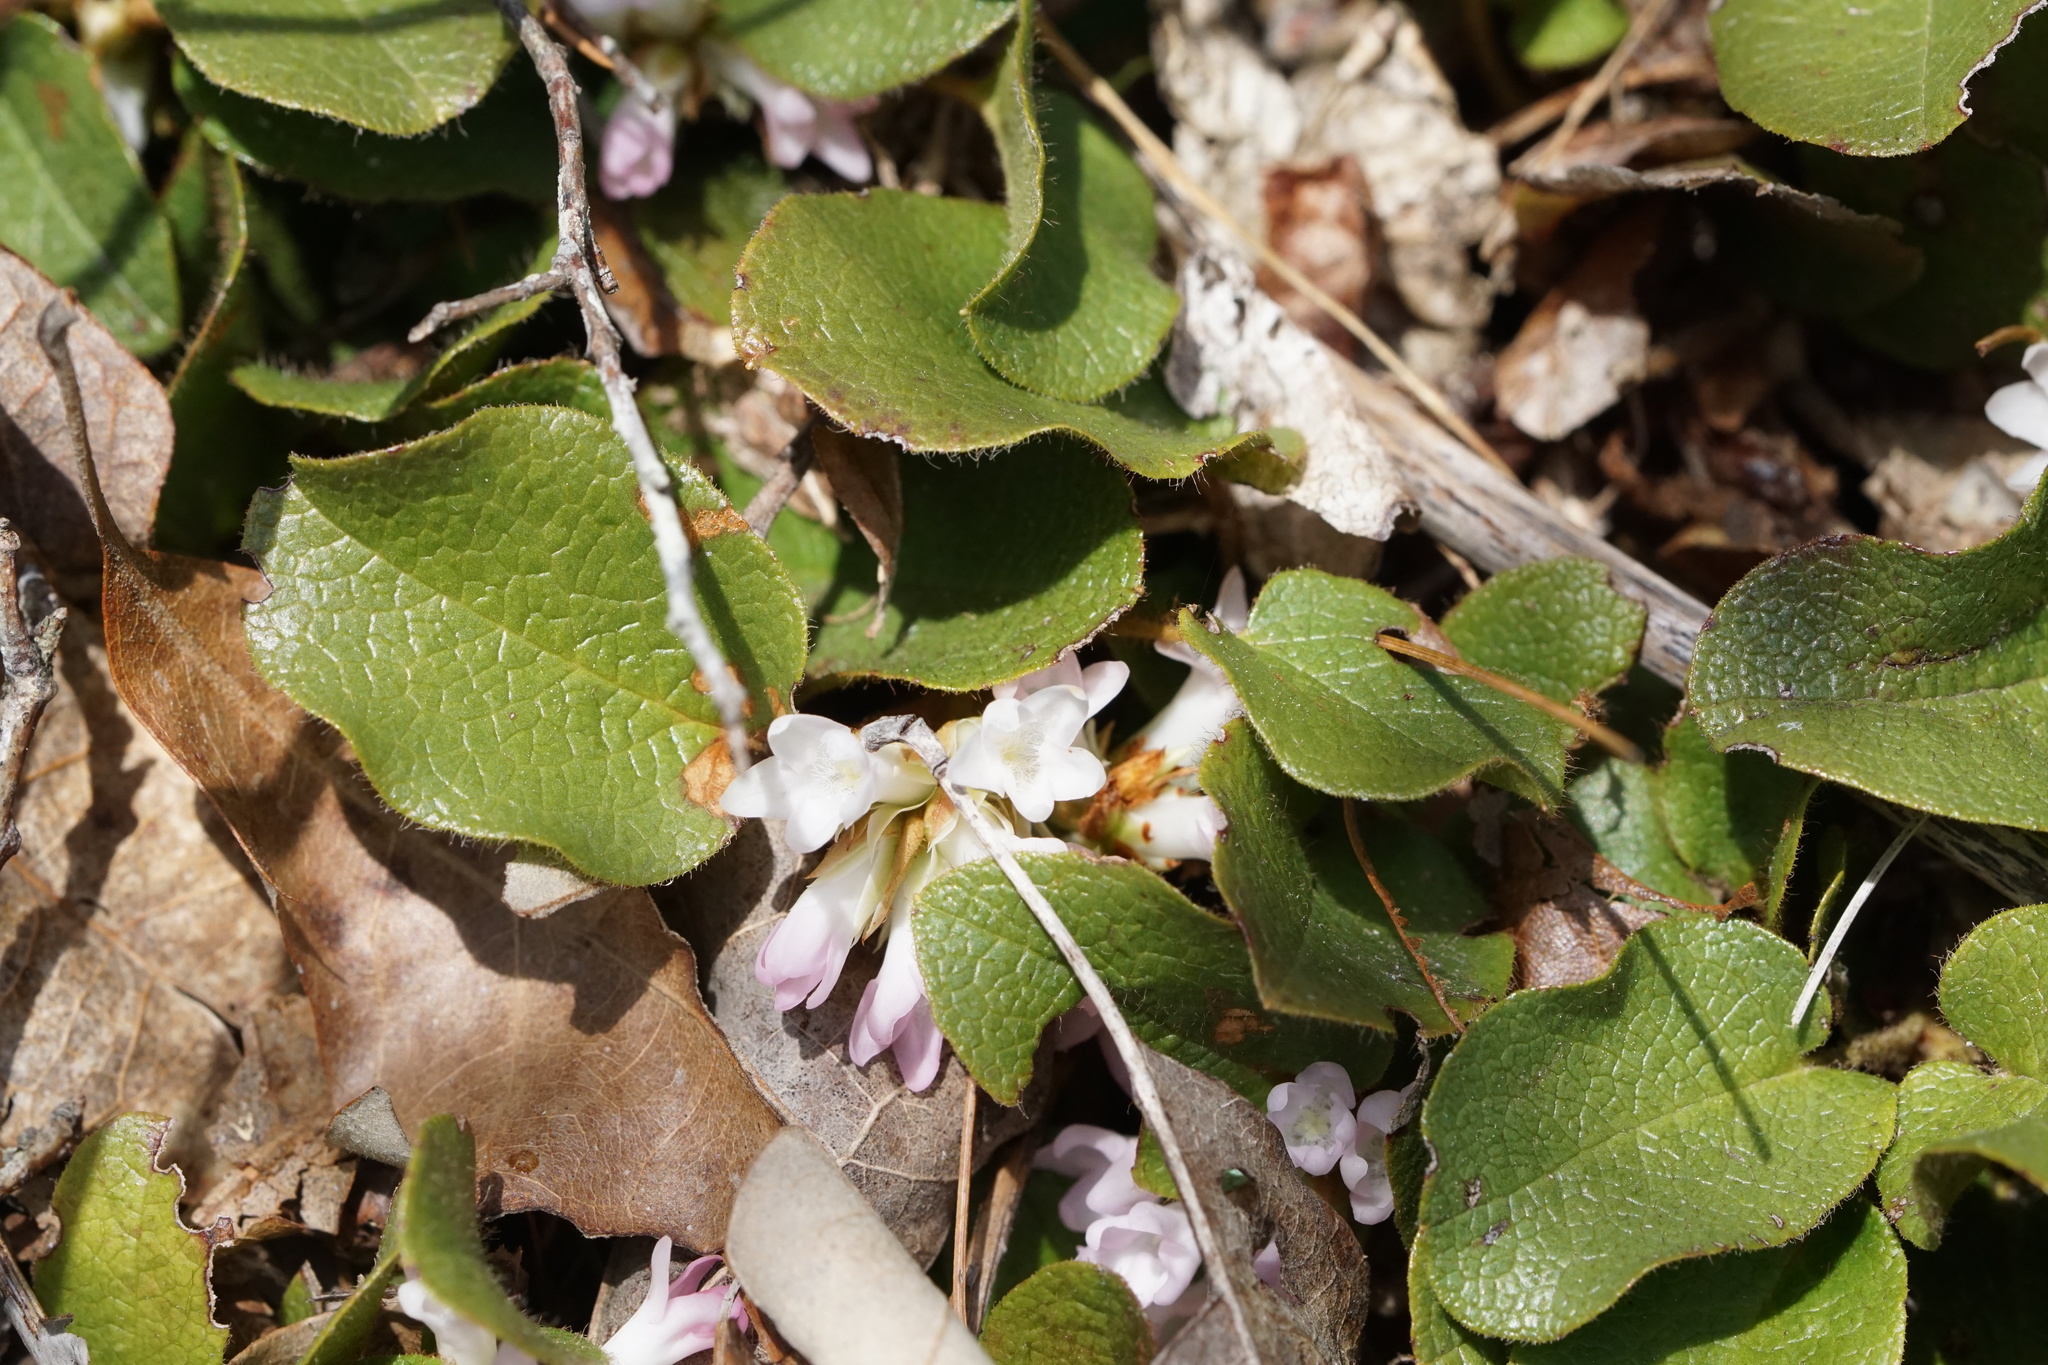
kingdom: Plantae
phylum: Tracheophyta
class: Magnoliopsida
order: Ericales
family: Ericaceae
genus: Epigaea
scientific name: Epigaea repens
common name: Gravelroot
